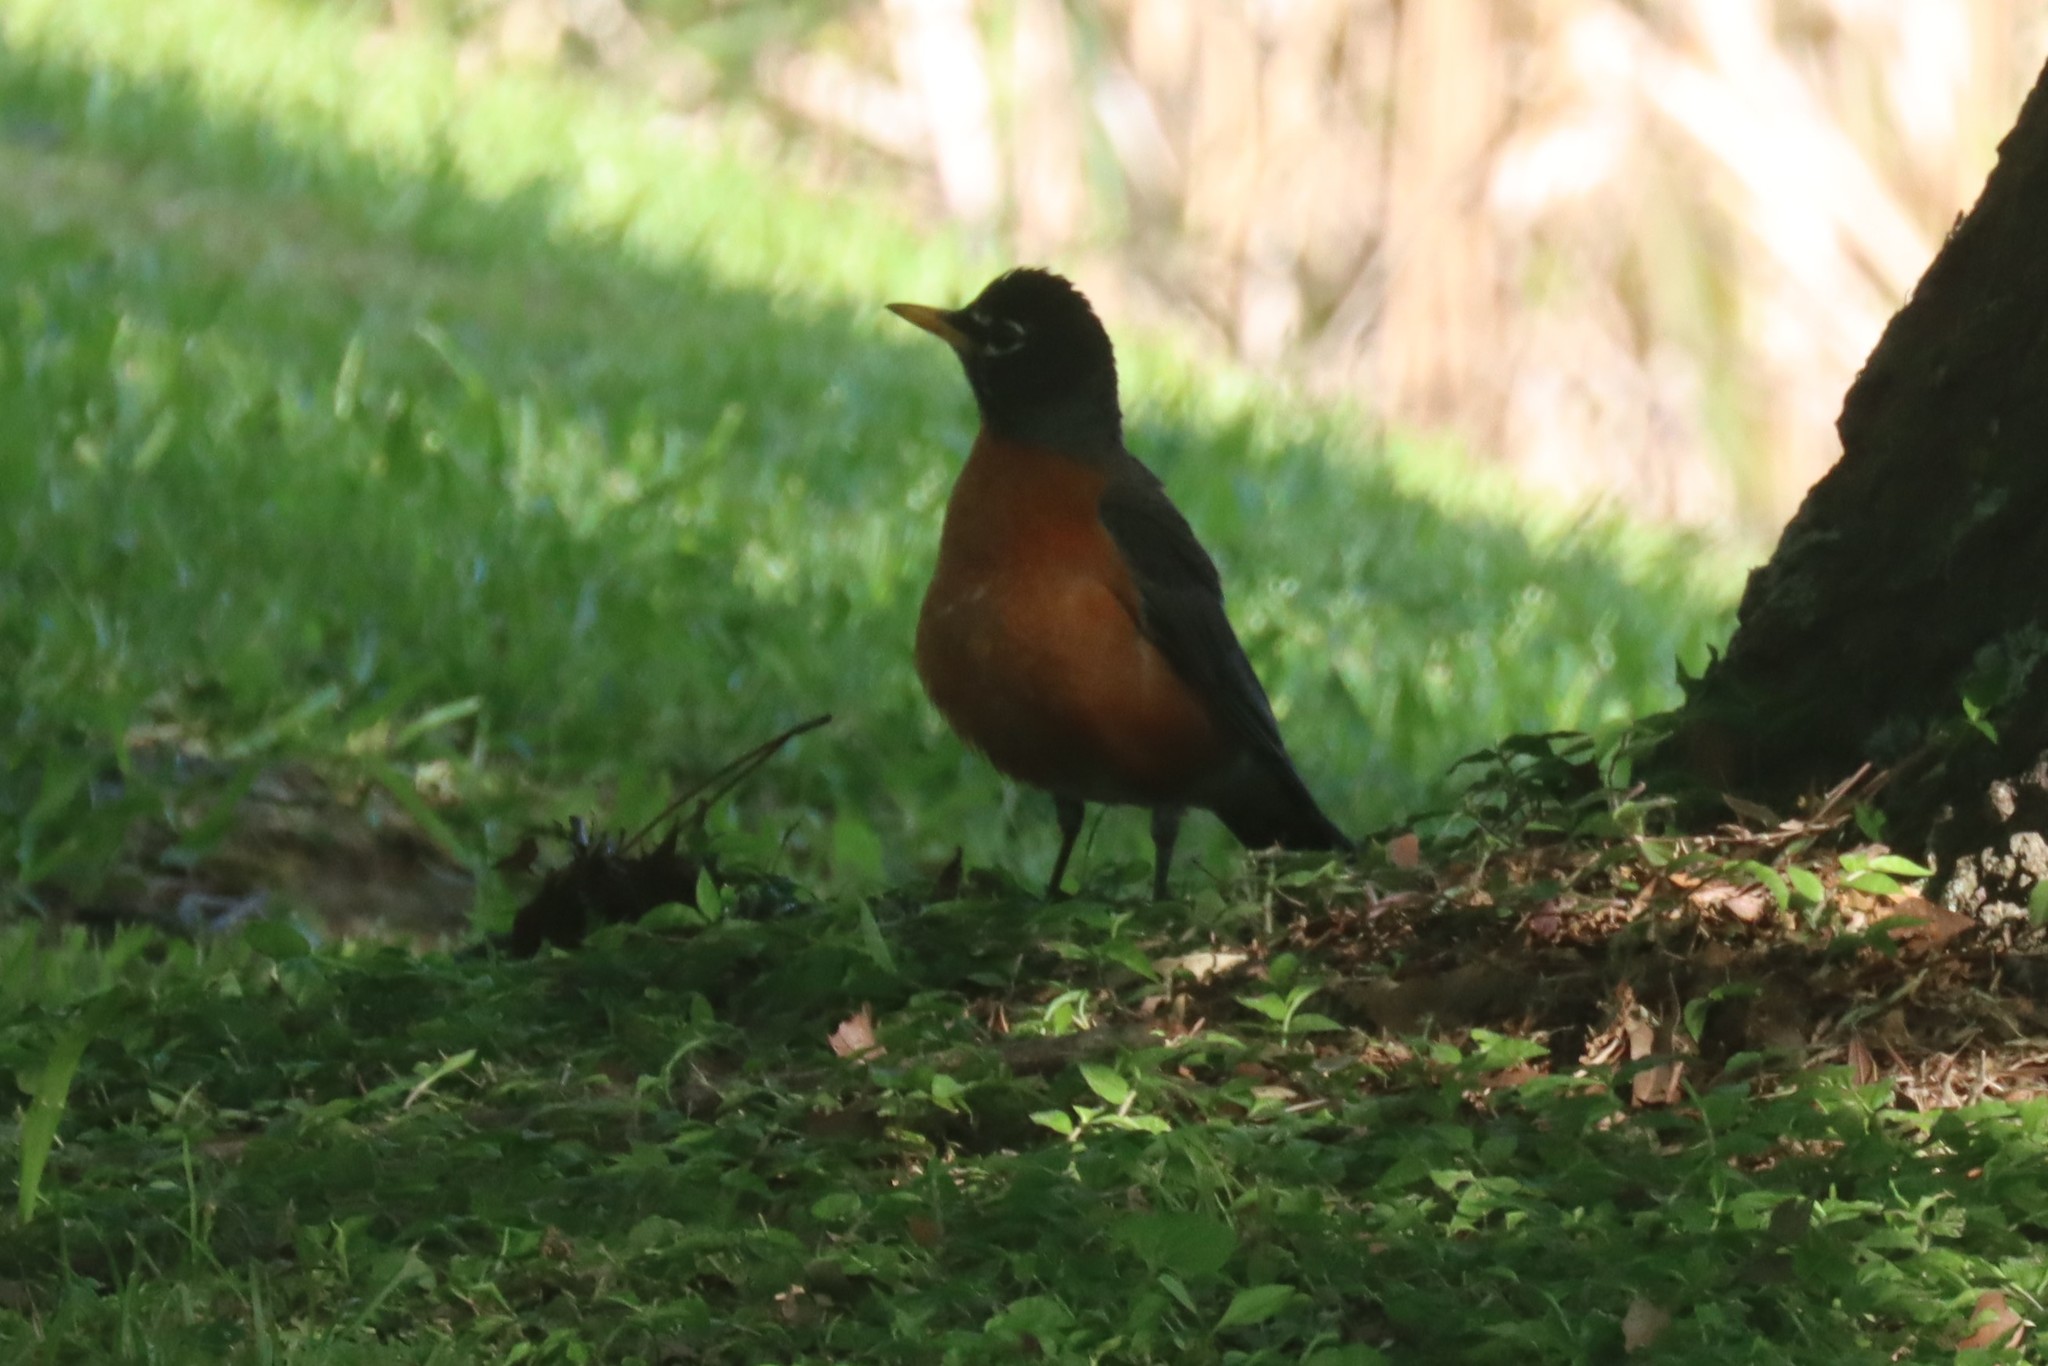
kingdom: Animalia
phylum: Chordata
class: Aves
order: Passeriformes
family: Turdidae
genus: Turdus
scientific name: Turdus migratorius
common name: American robin
